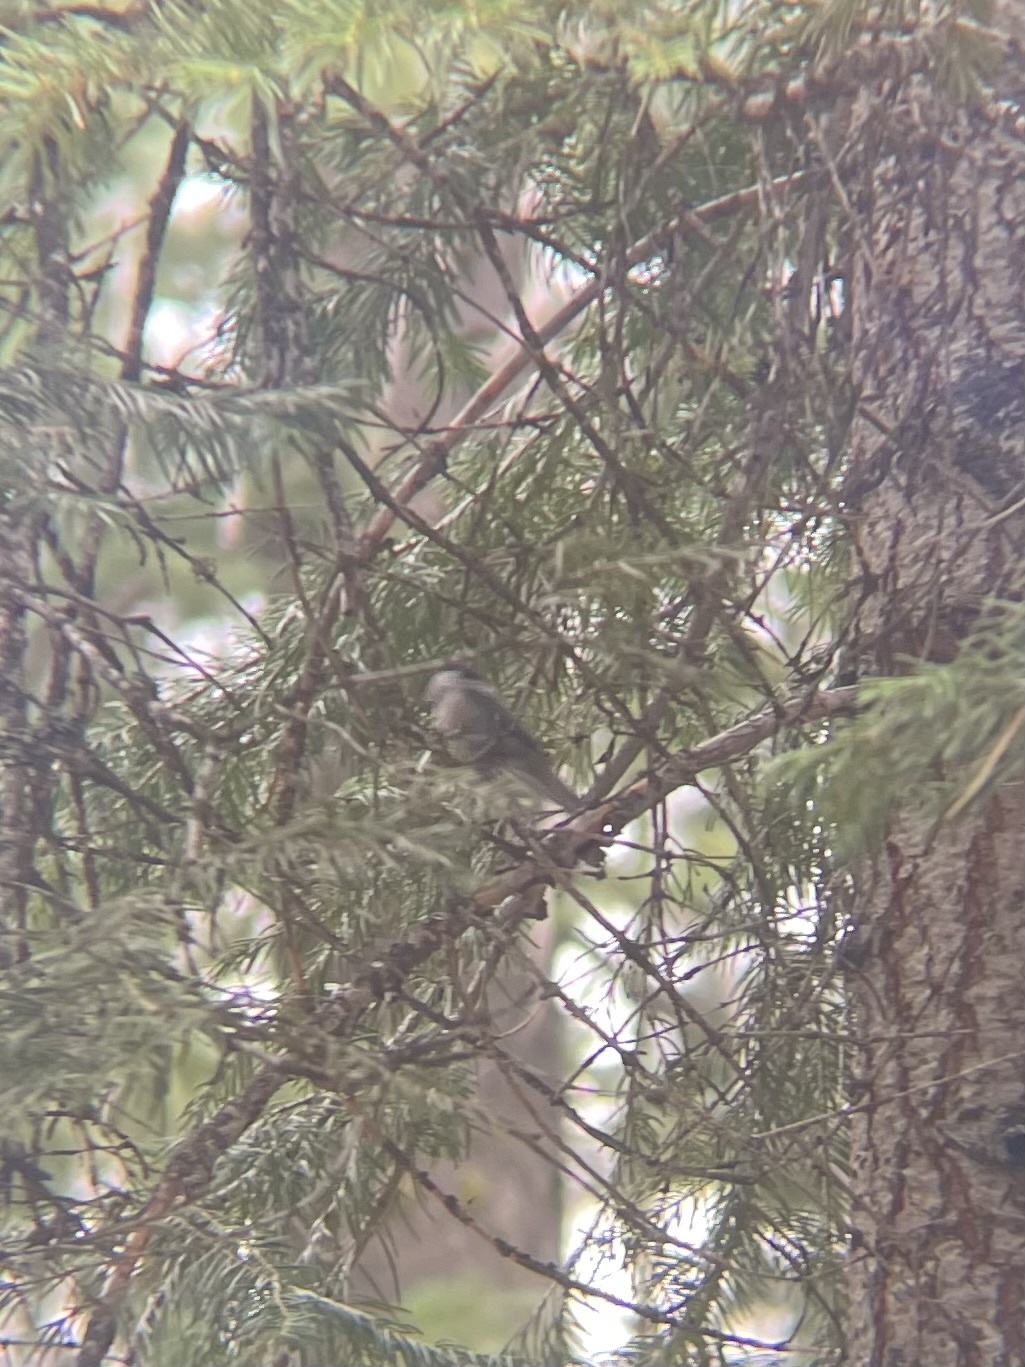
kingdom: Animalia
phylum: Chordata
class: Aves
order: Passeriformes
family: Paridae
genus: Poecile
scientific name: Poecile gambeli
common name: Mountain chickadee
